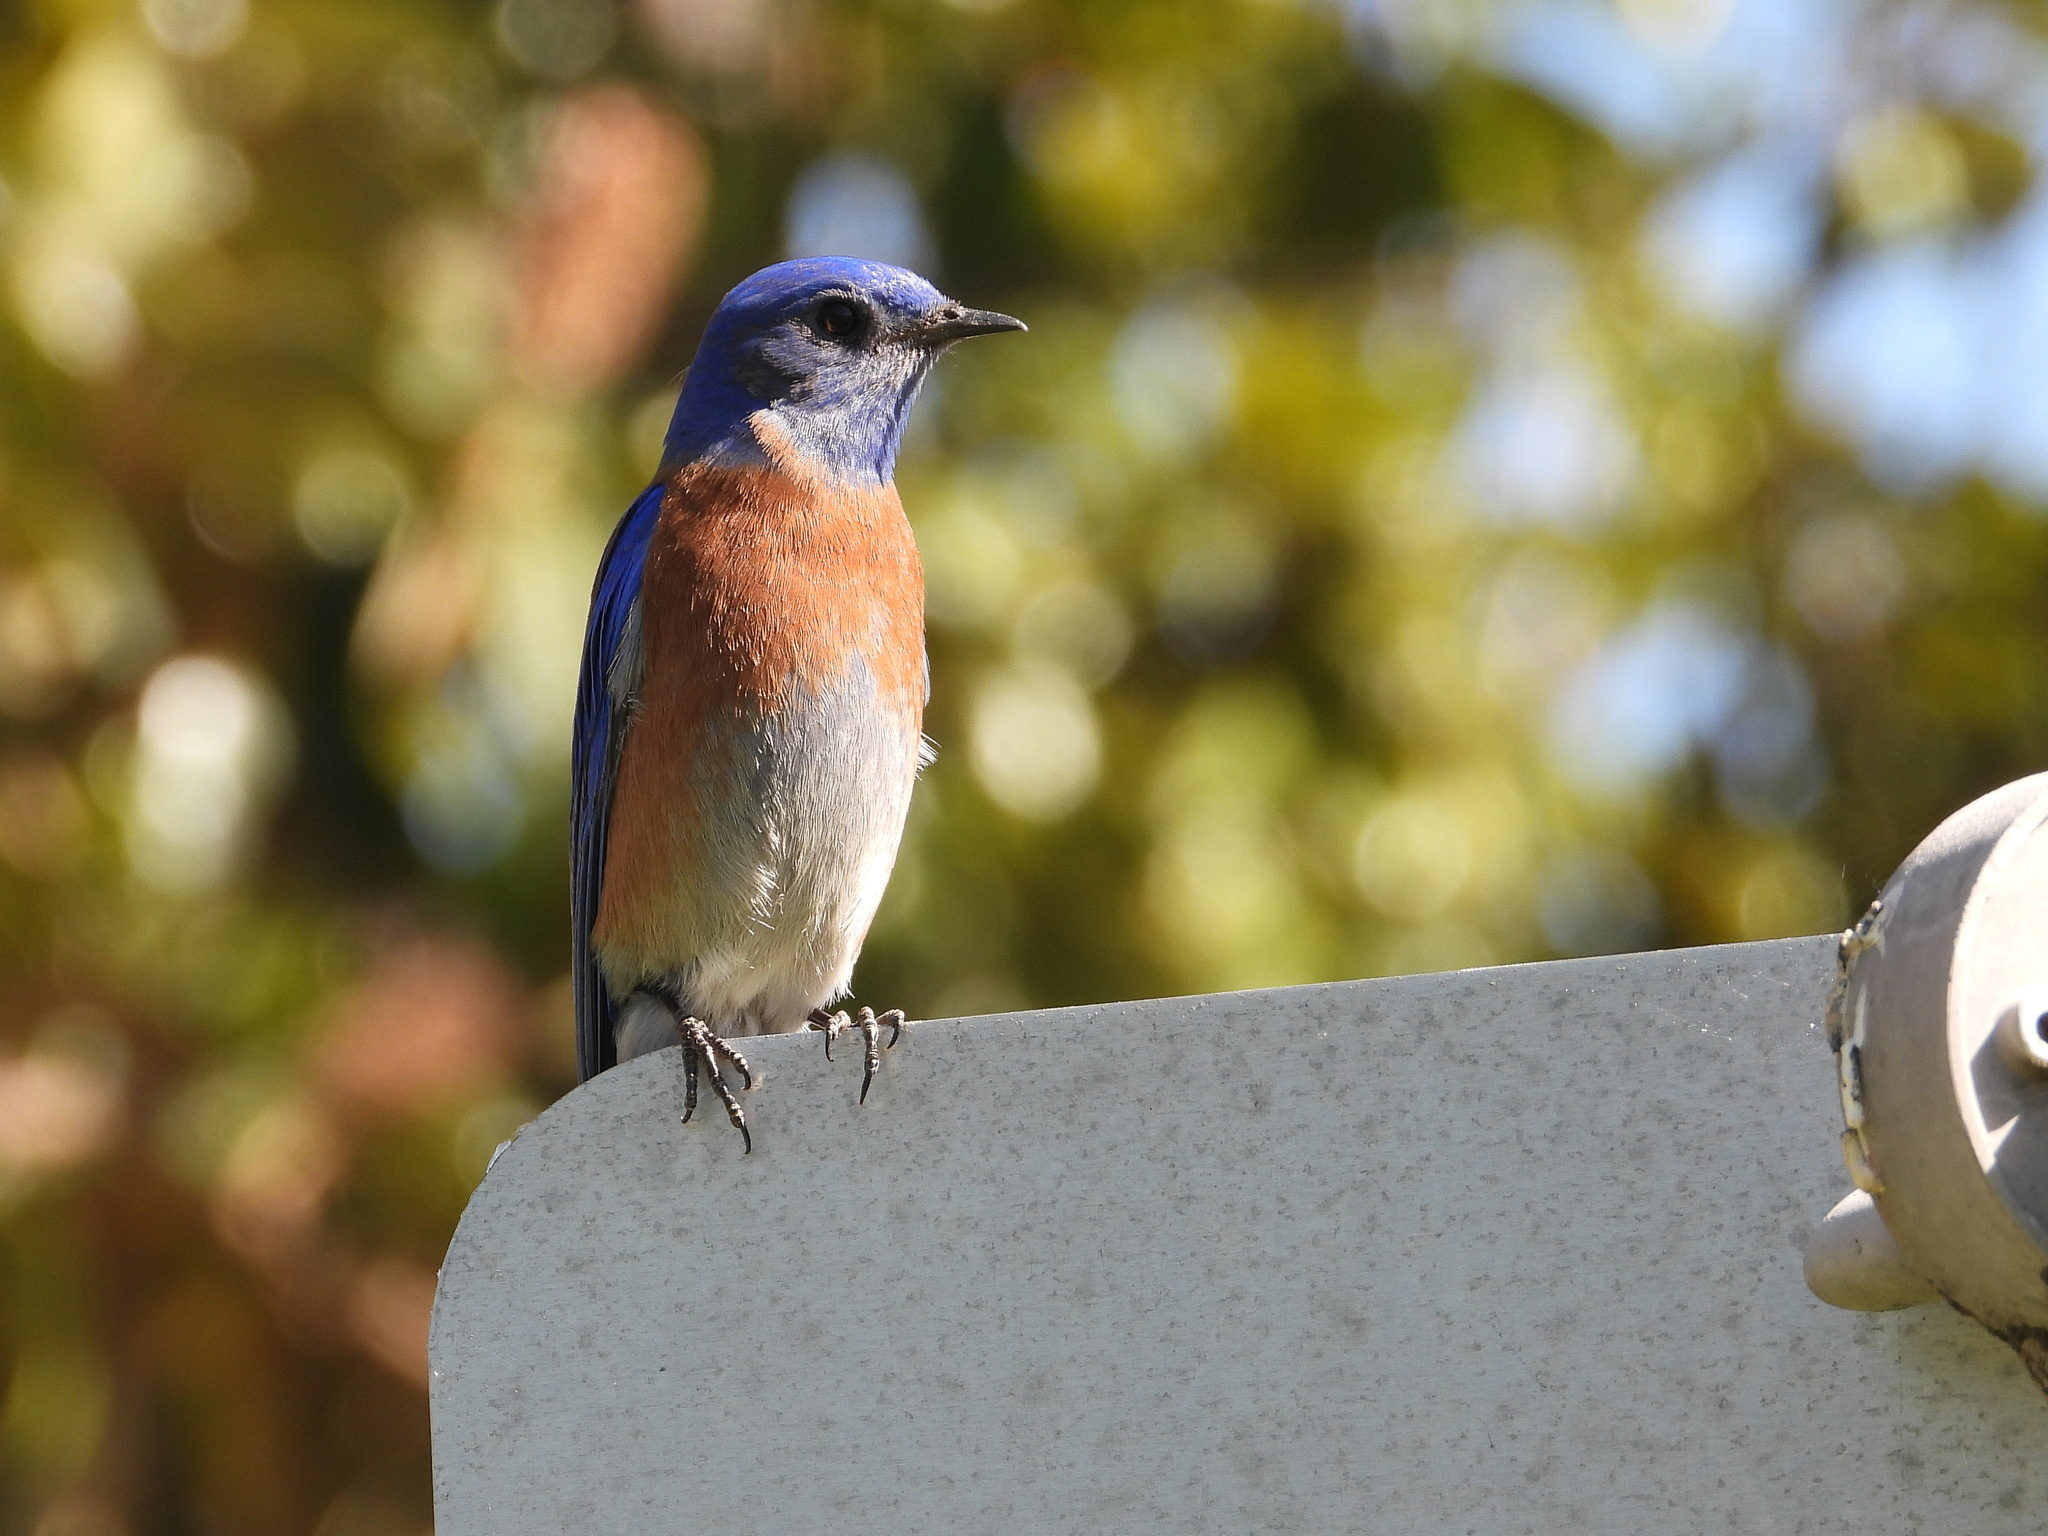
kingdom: Animalia
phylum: Chordata
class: Aves
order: Passeriformes
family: Turdidae
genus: Sialia
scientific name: Sialia mexicana
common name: Western bluebird
